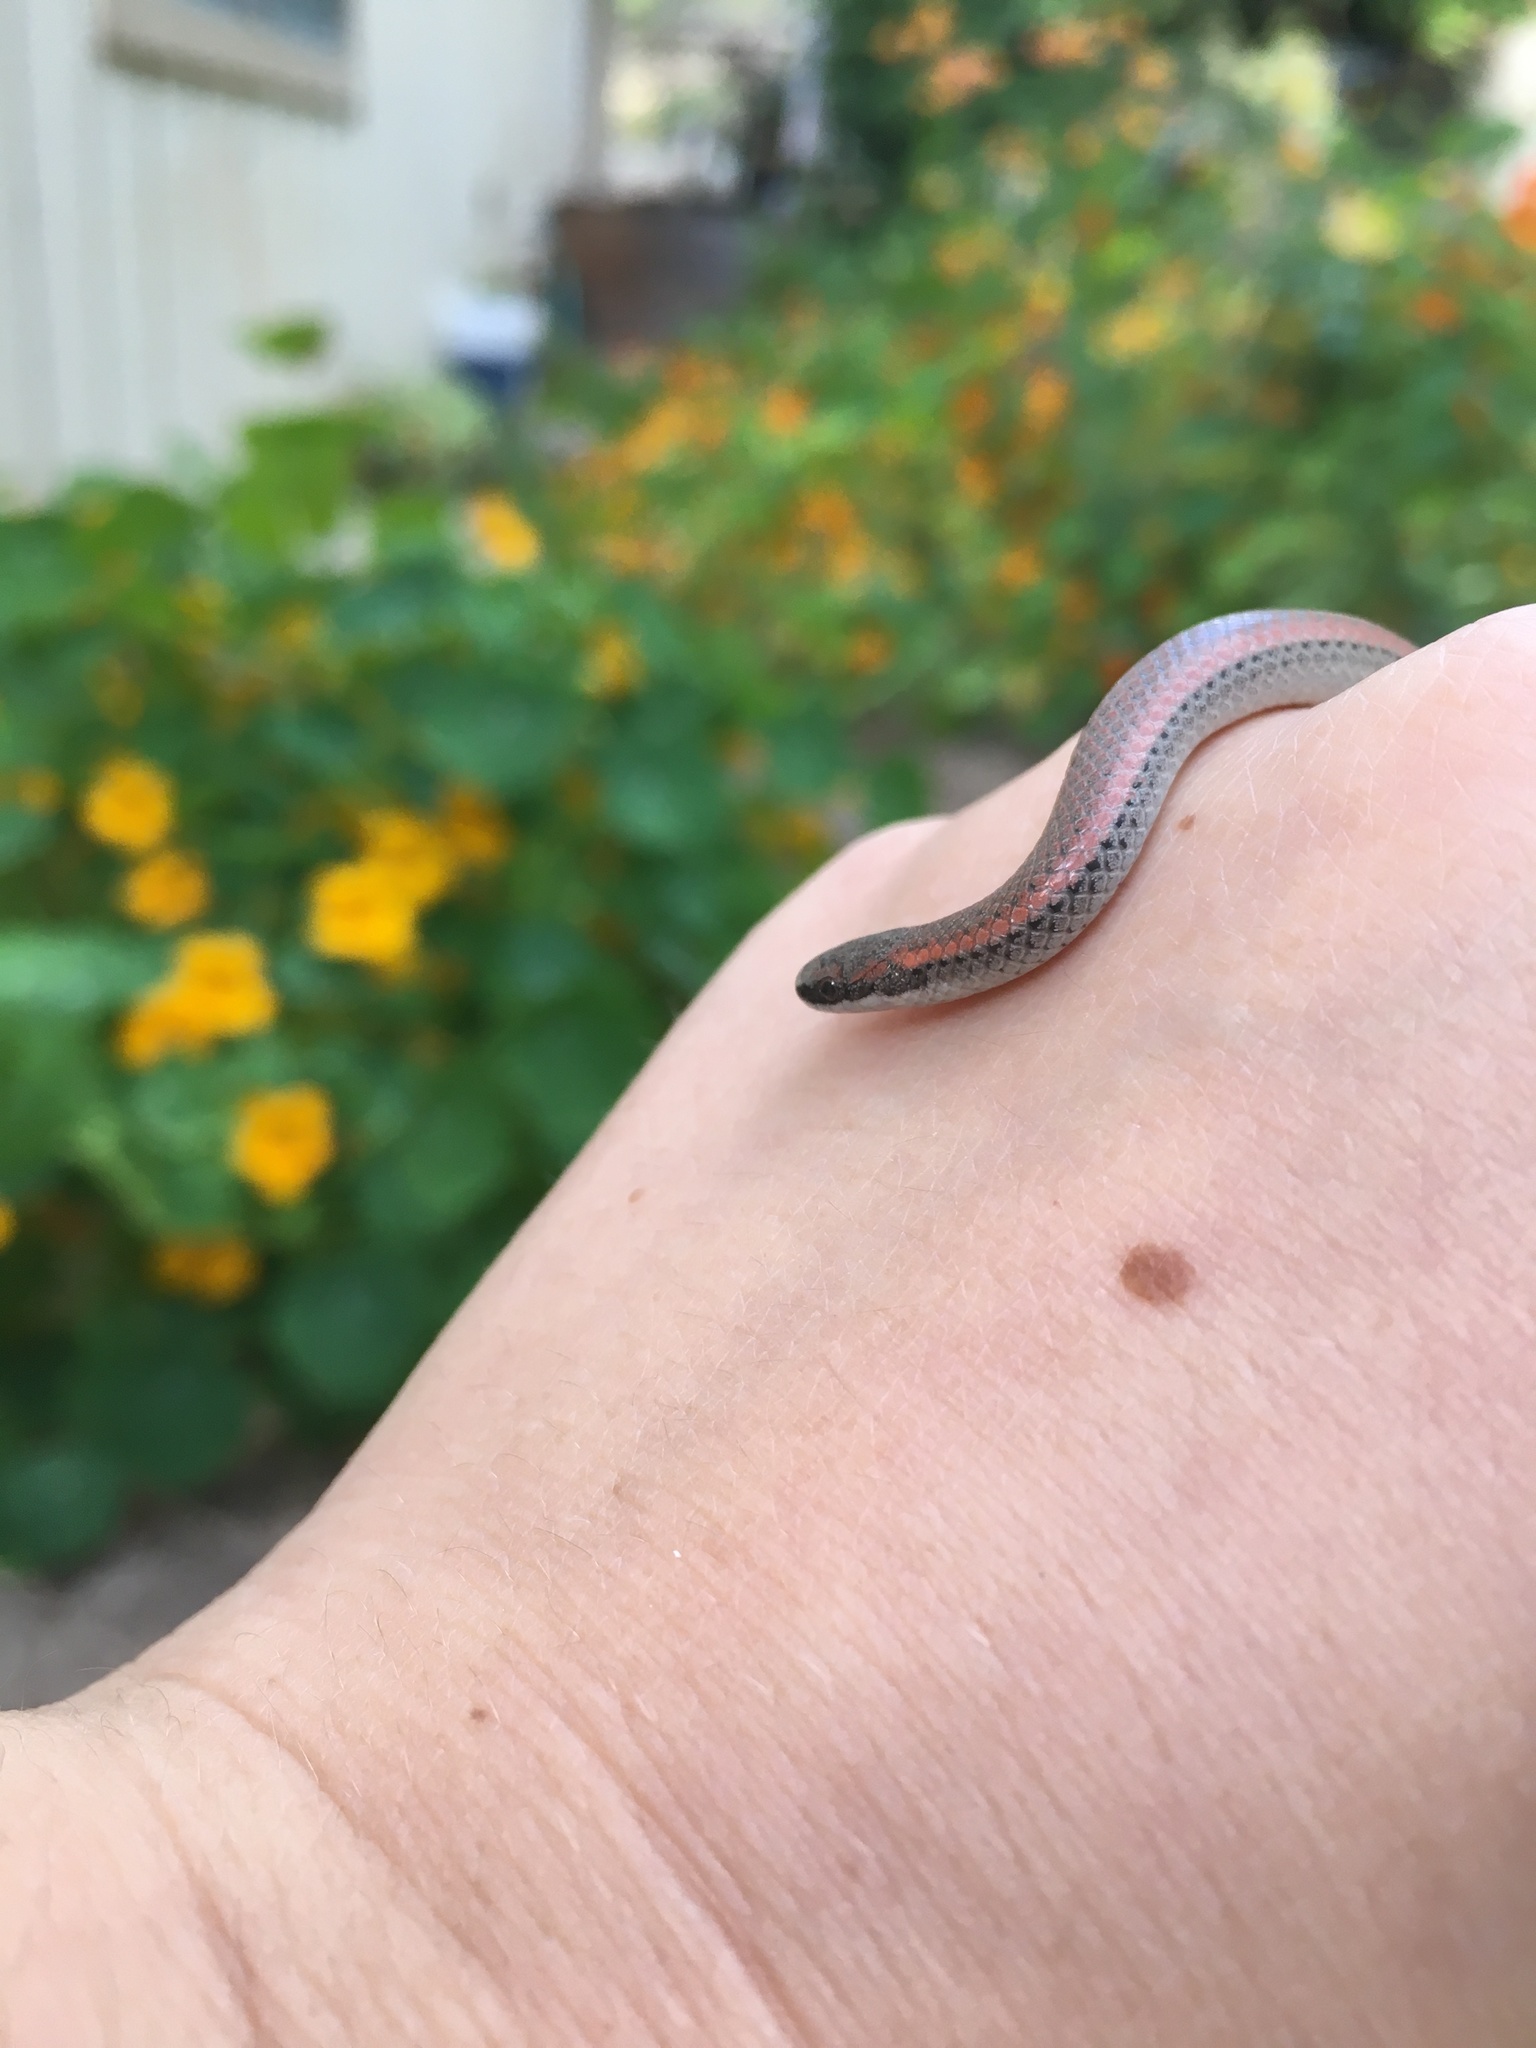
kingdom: Animalia
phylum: Chordata
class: Squamata
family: Colubridae
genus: Contia
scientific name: Contia tenuis
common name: Sharptail snake
